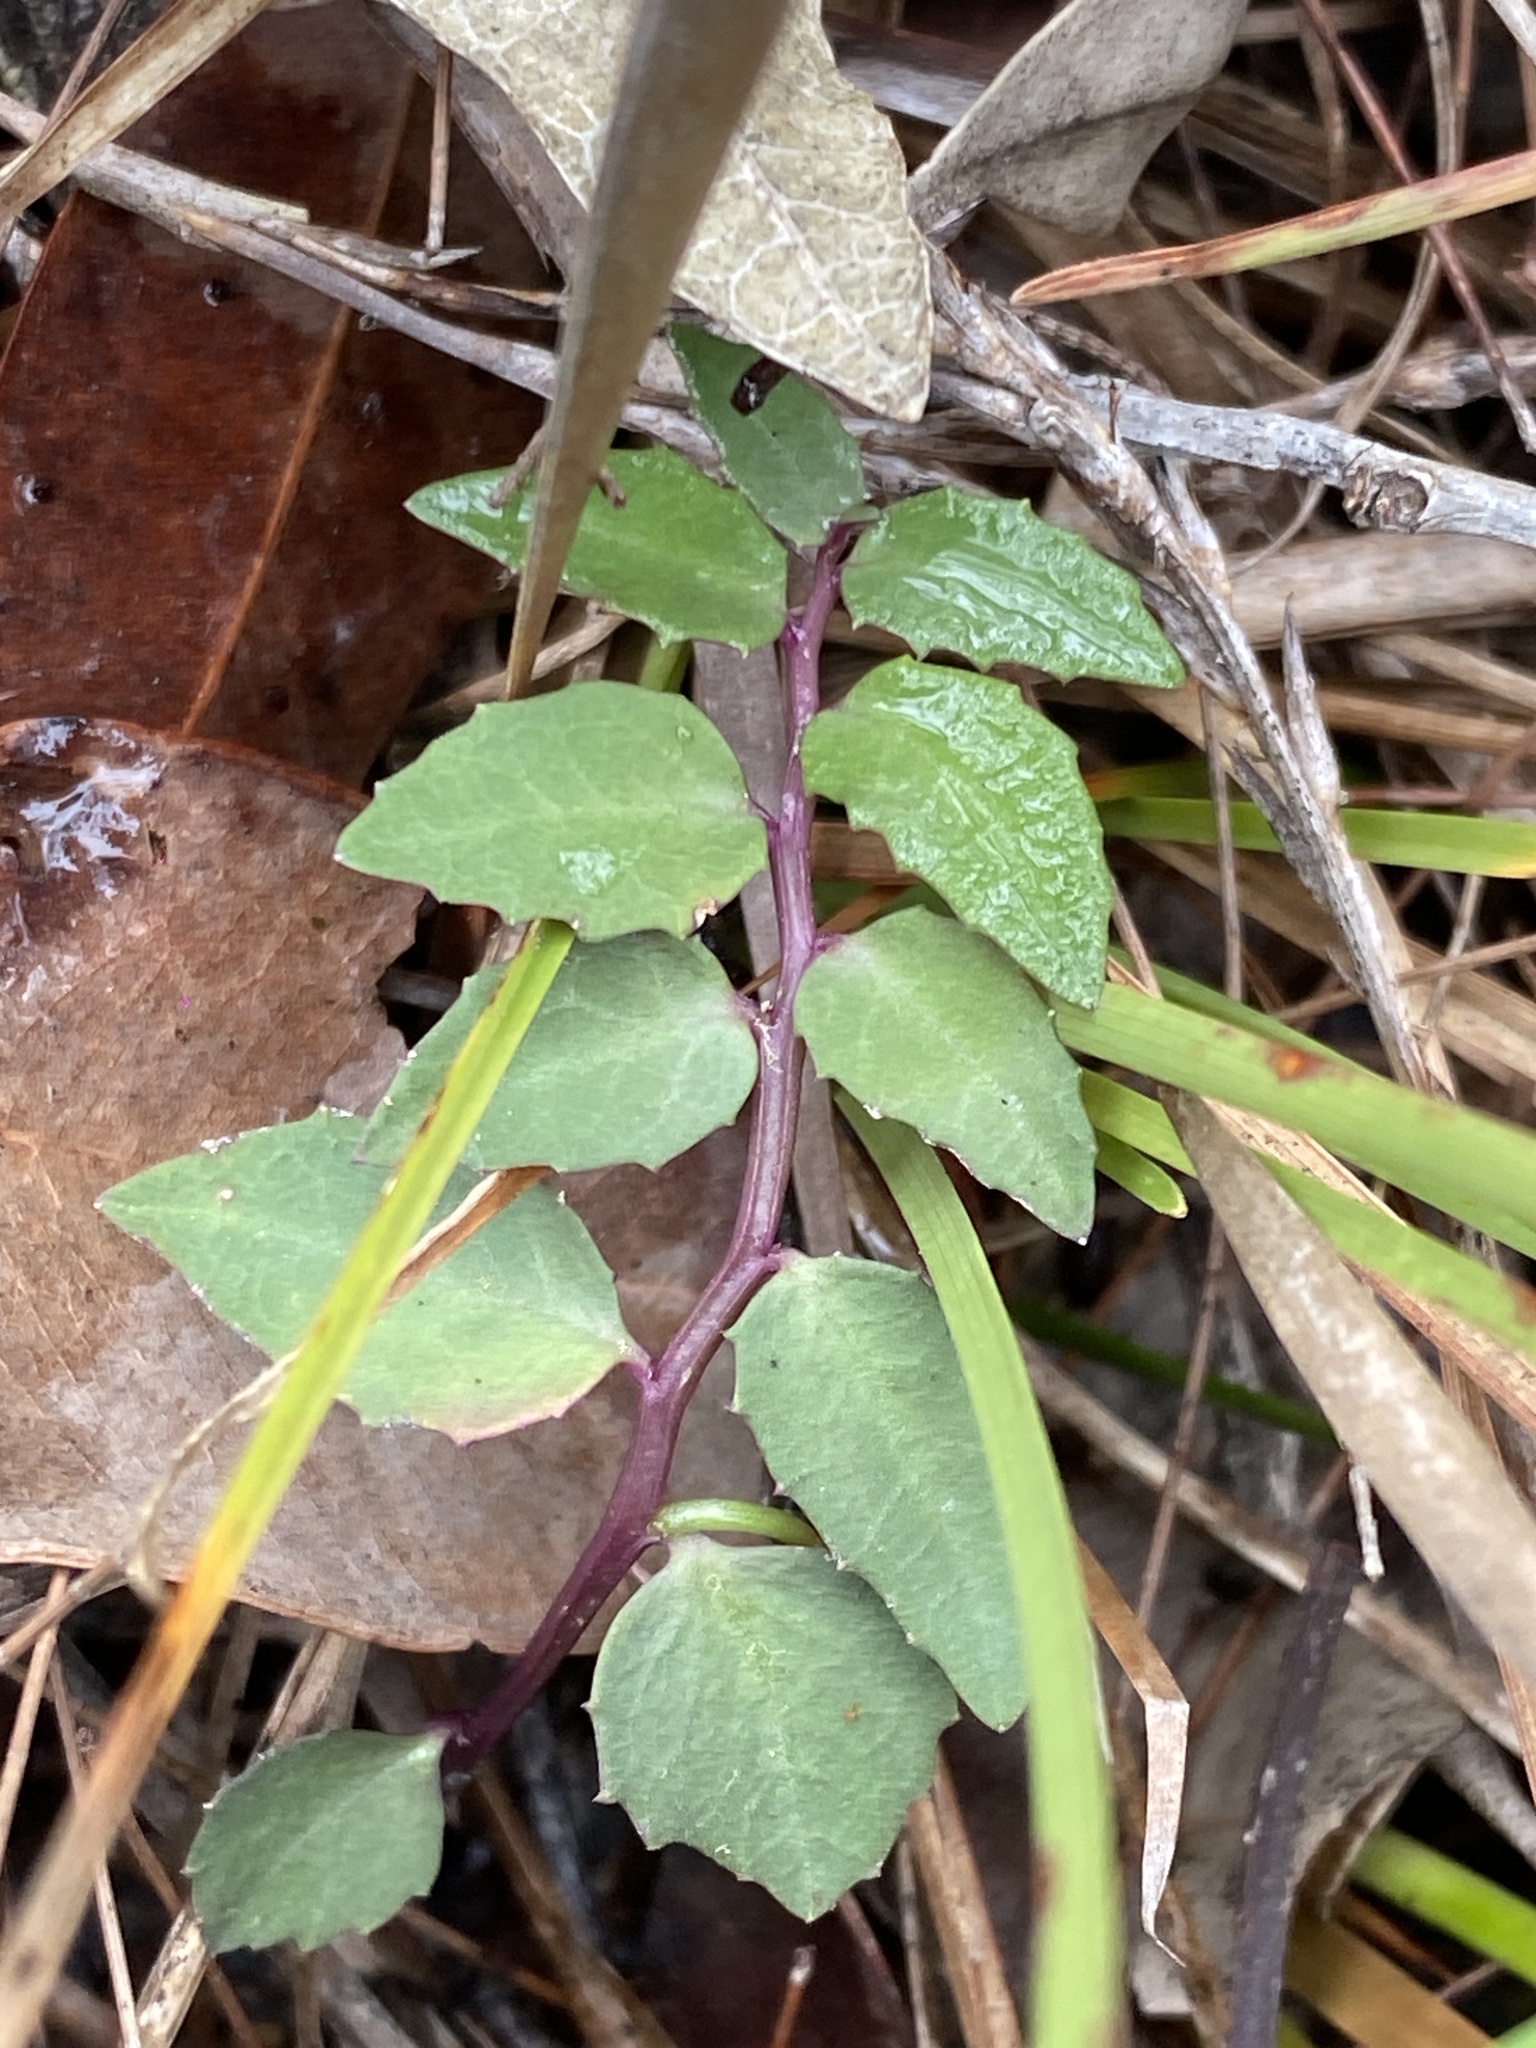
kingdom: Plantae
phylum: Tracheophyta
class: Magnoliopsida
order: Asterales
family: Campanulaceae
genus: Lobelia
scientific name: Lobelia purpurascens
